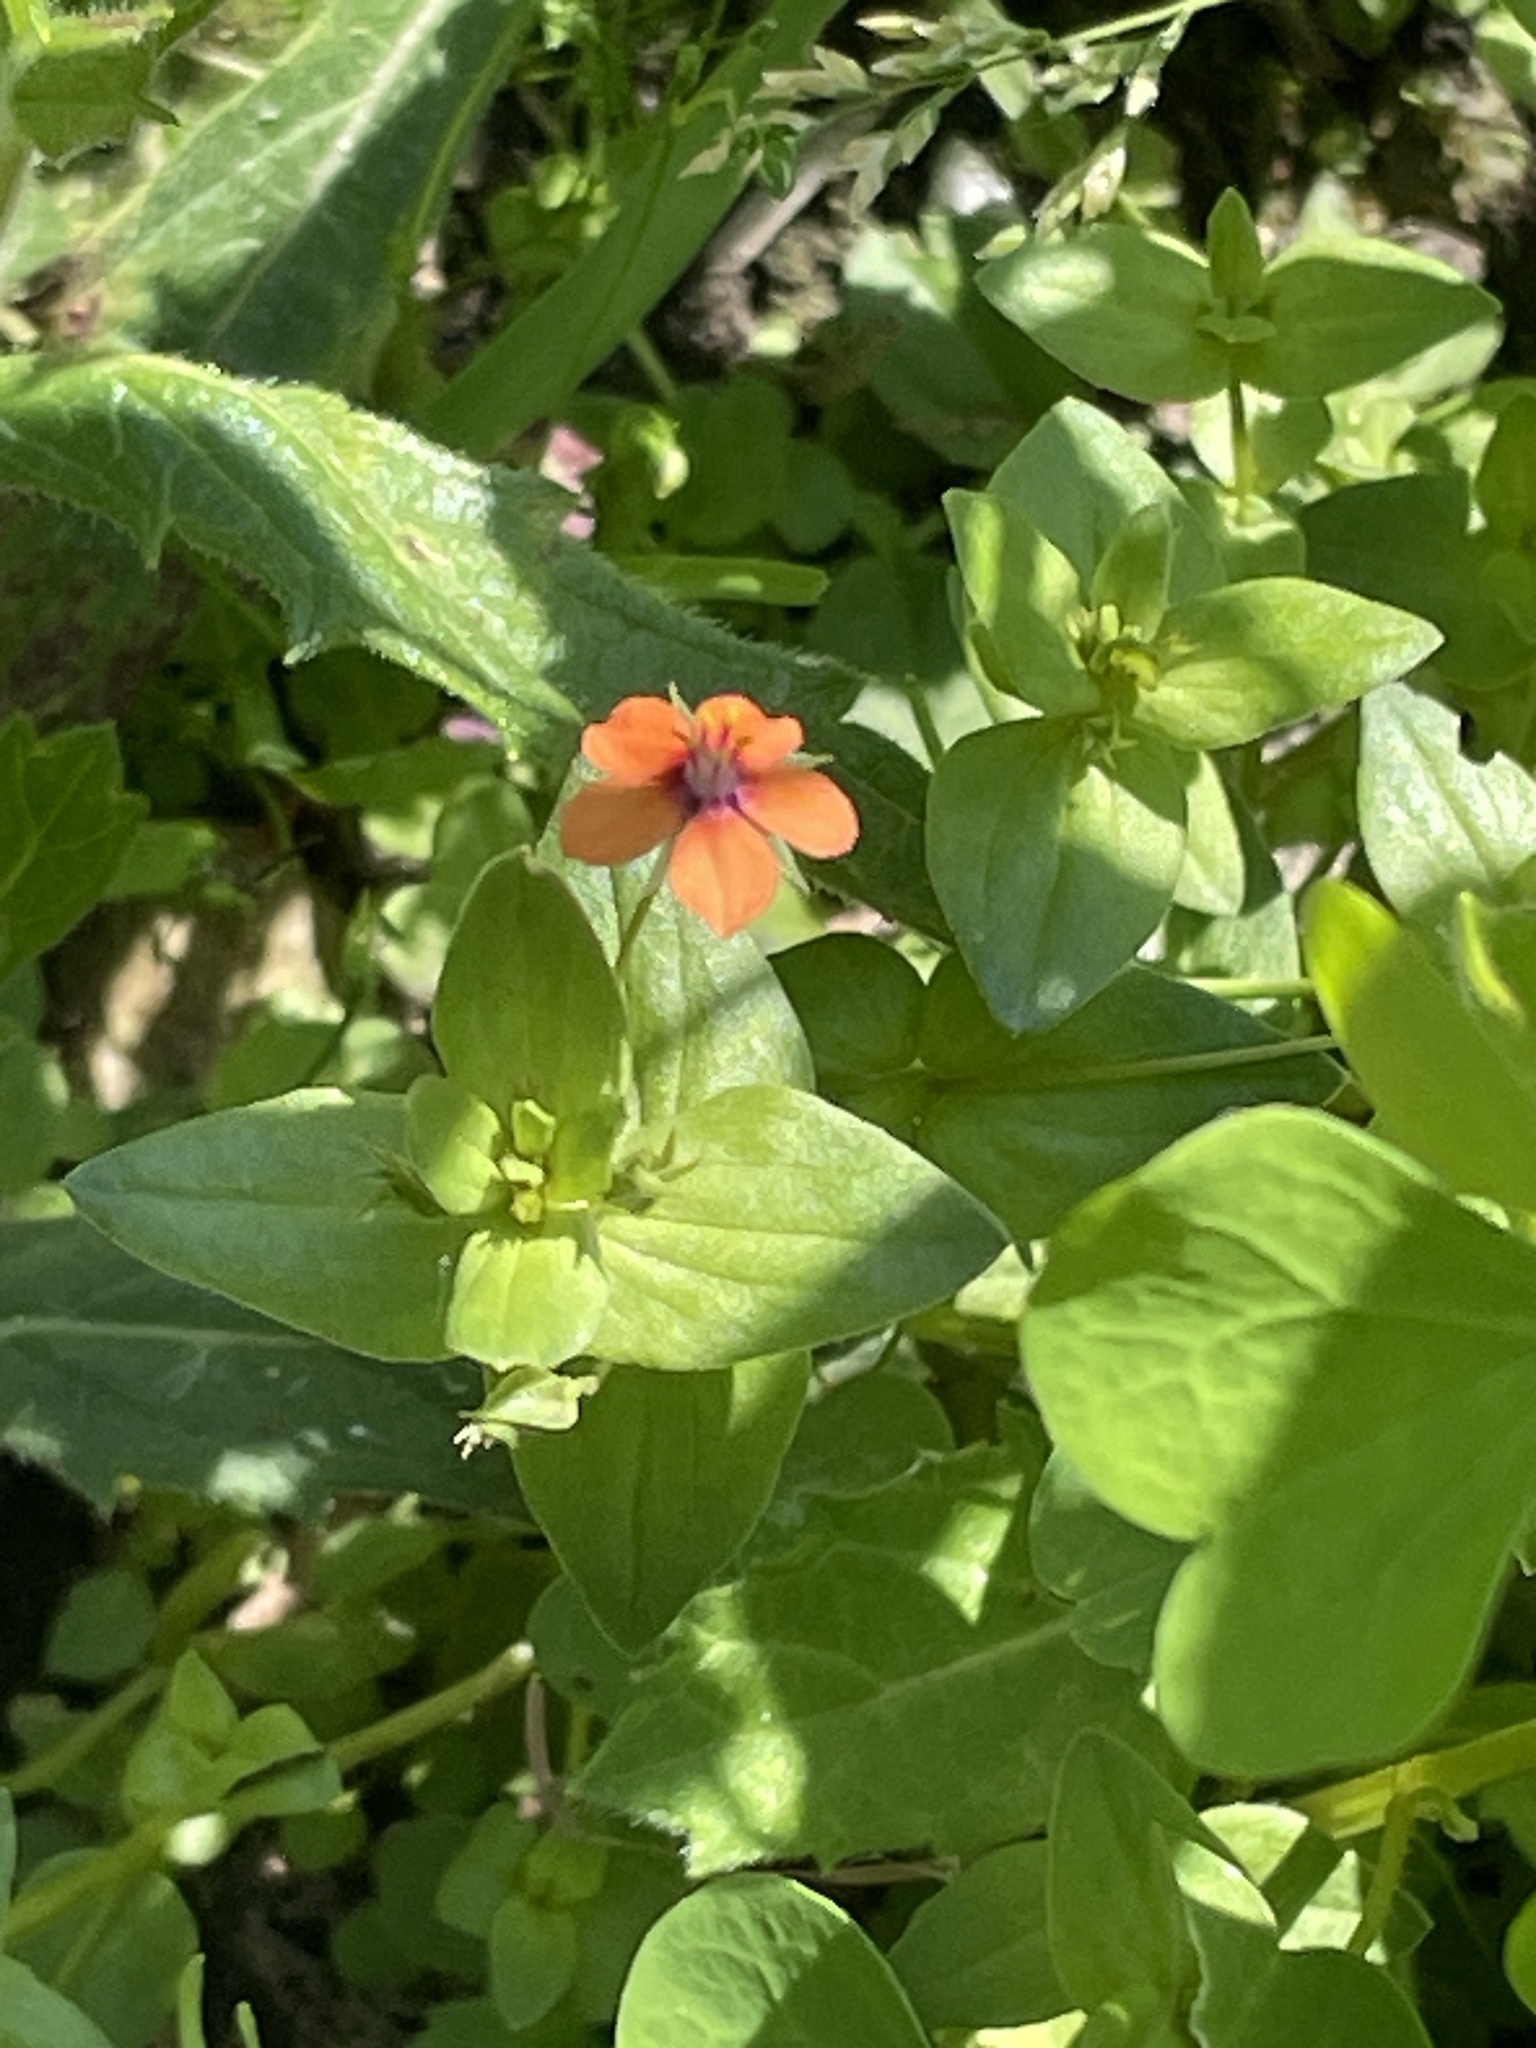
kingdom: Plantae
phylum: Tracheophyta
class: Magnoliopsida
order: Ericales
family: Primulaceae
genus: Lysimachia
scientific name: Lysimachia arvensis
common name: Scarlet pimpernel
